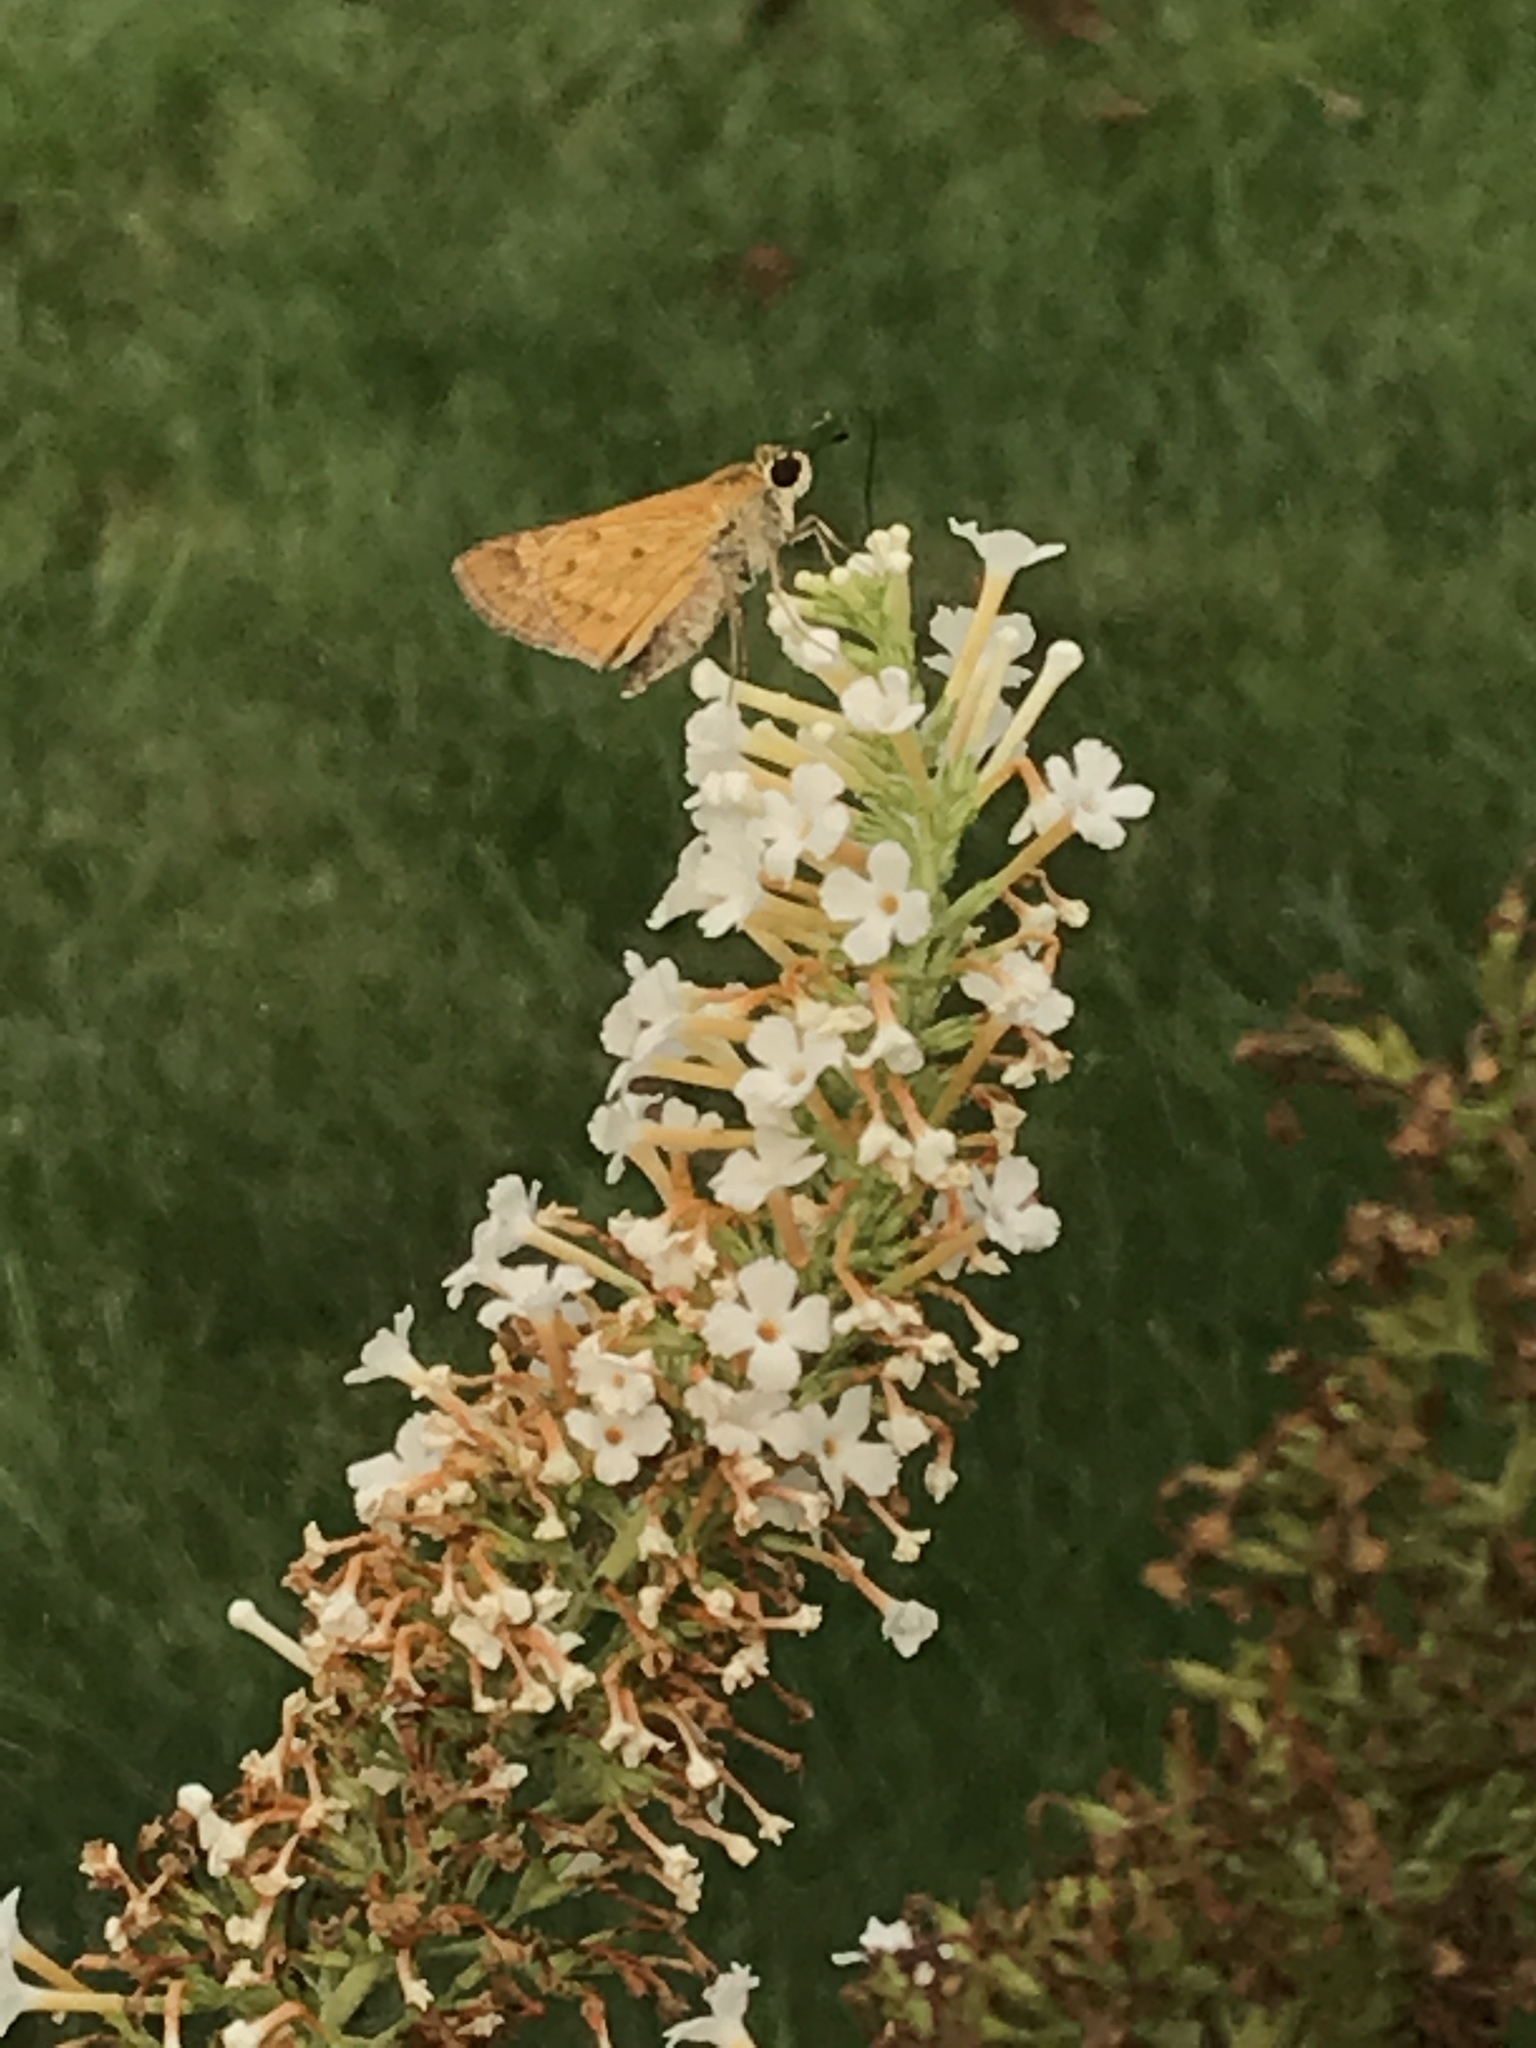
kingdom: Animalia
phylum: Arthropoda
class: Insecta
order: Lepidoptera
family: Hesperiidae
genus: Hylephila
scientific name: Hylephila phyleus
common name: Fiery skipper
